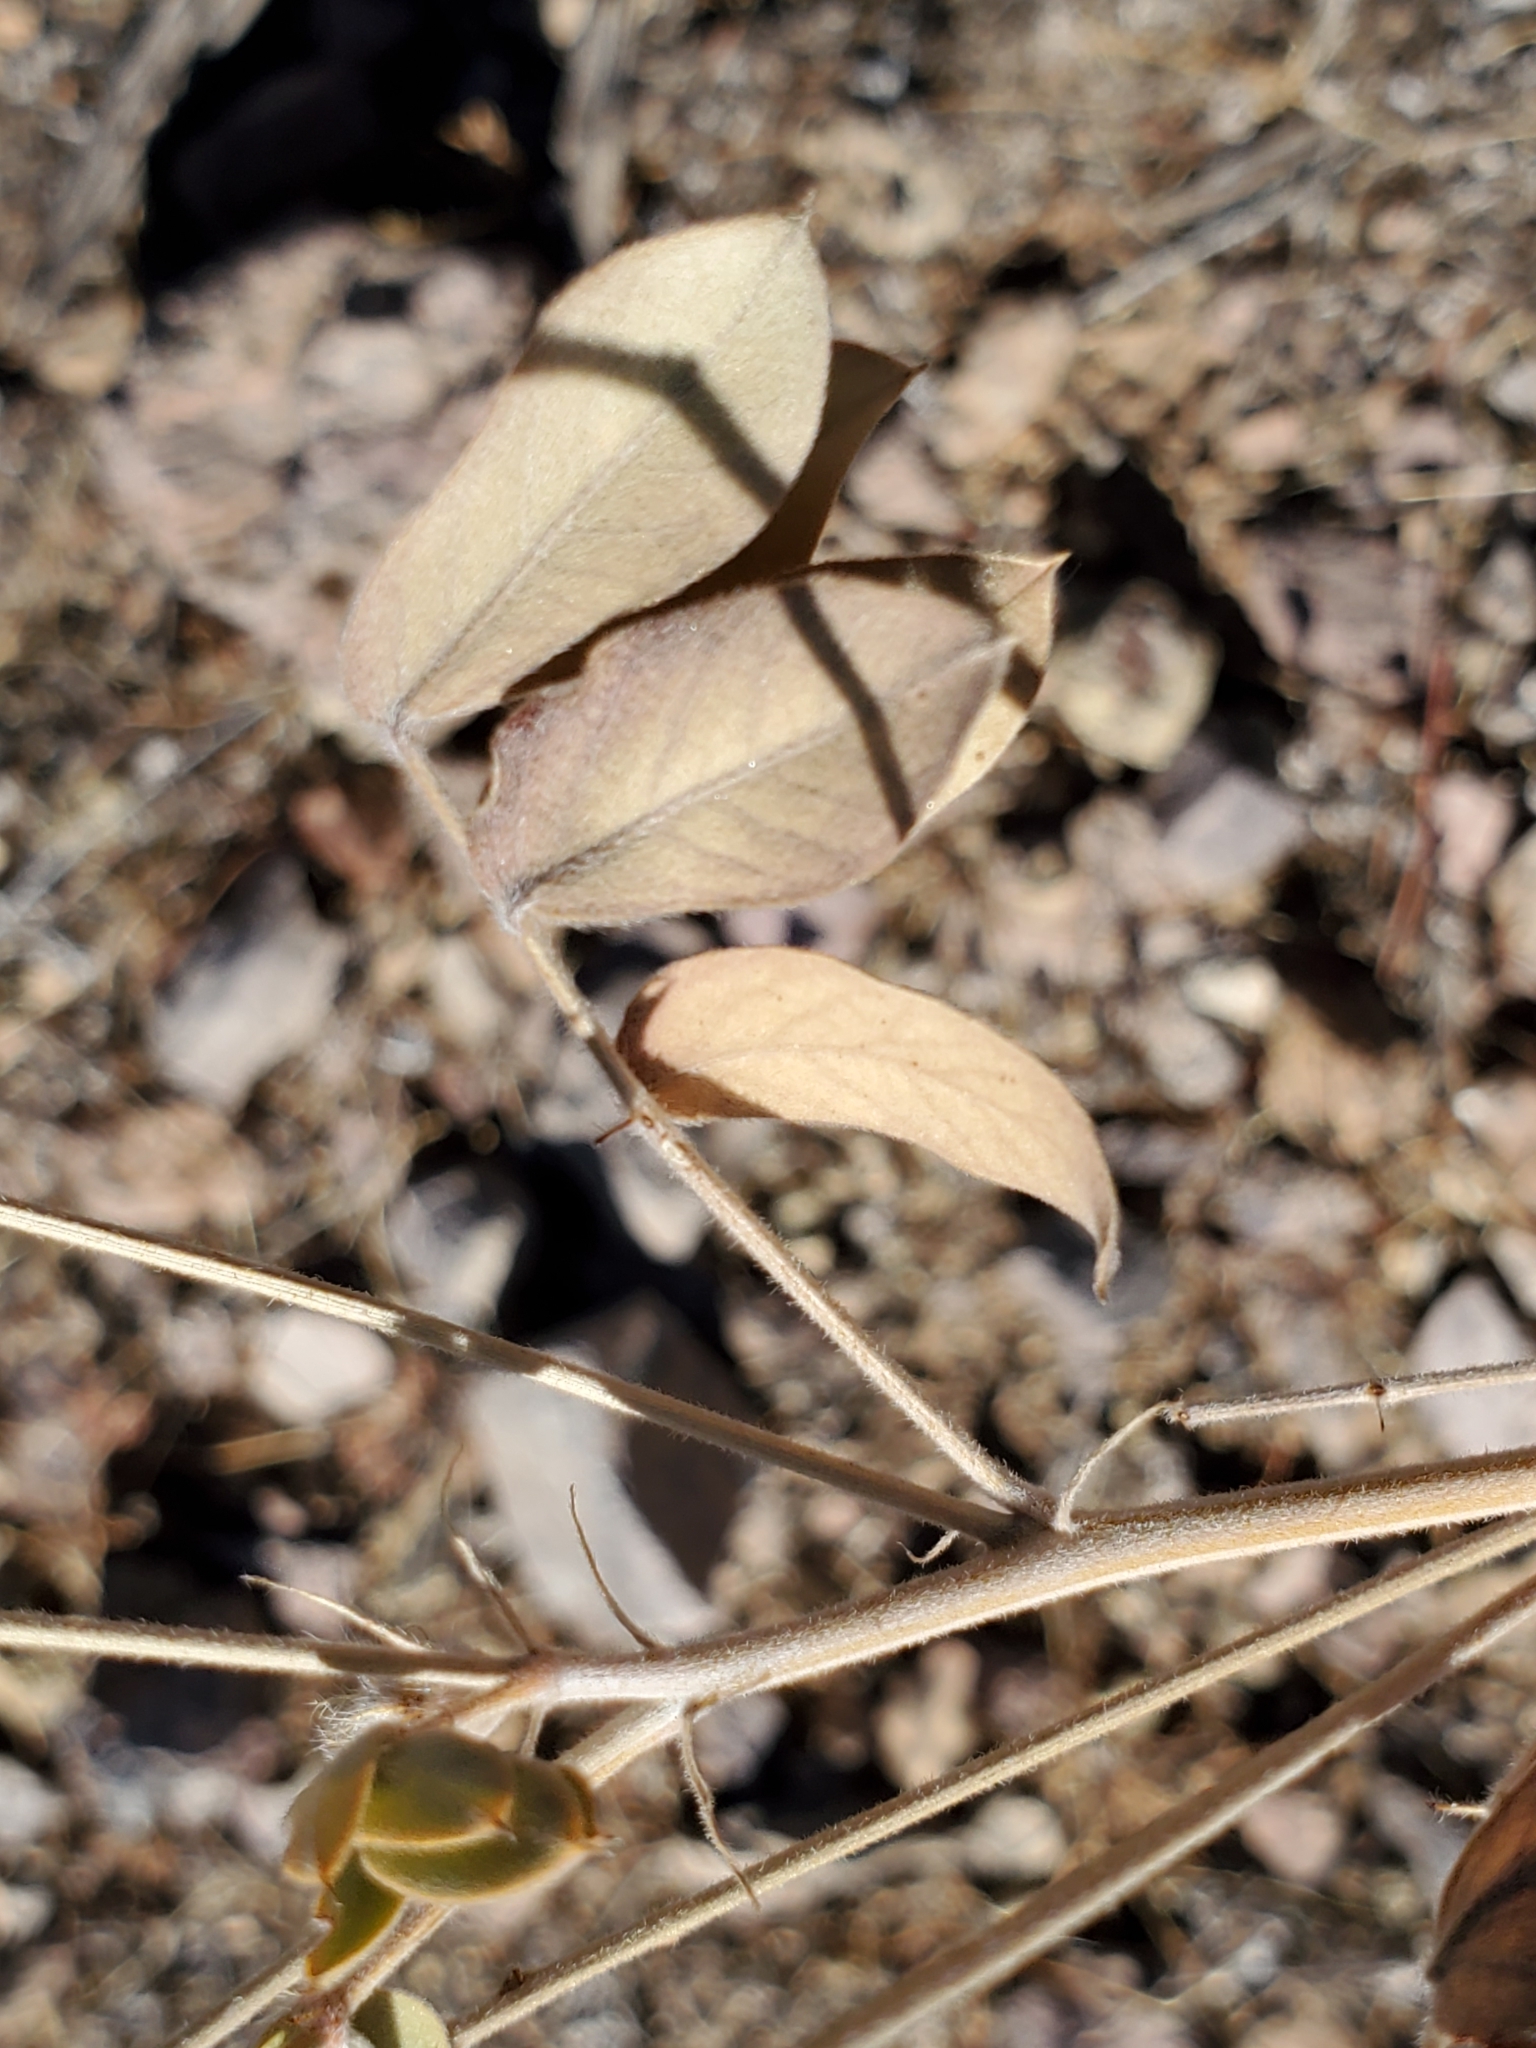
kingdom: Plantae
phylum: Tracheophyta
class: Magnoliopsida
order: Fabales
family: Fabaceae
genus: Senna
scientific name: Senna covesii
